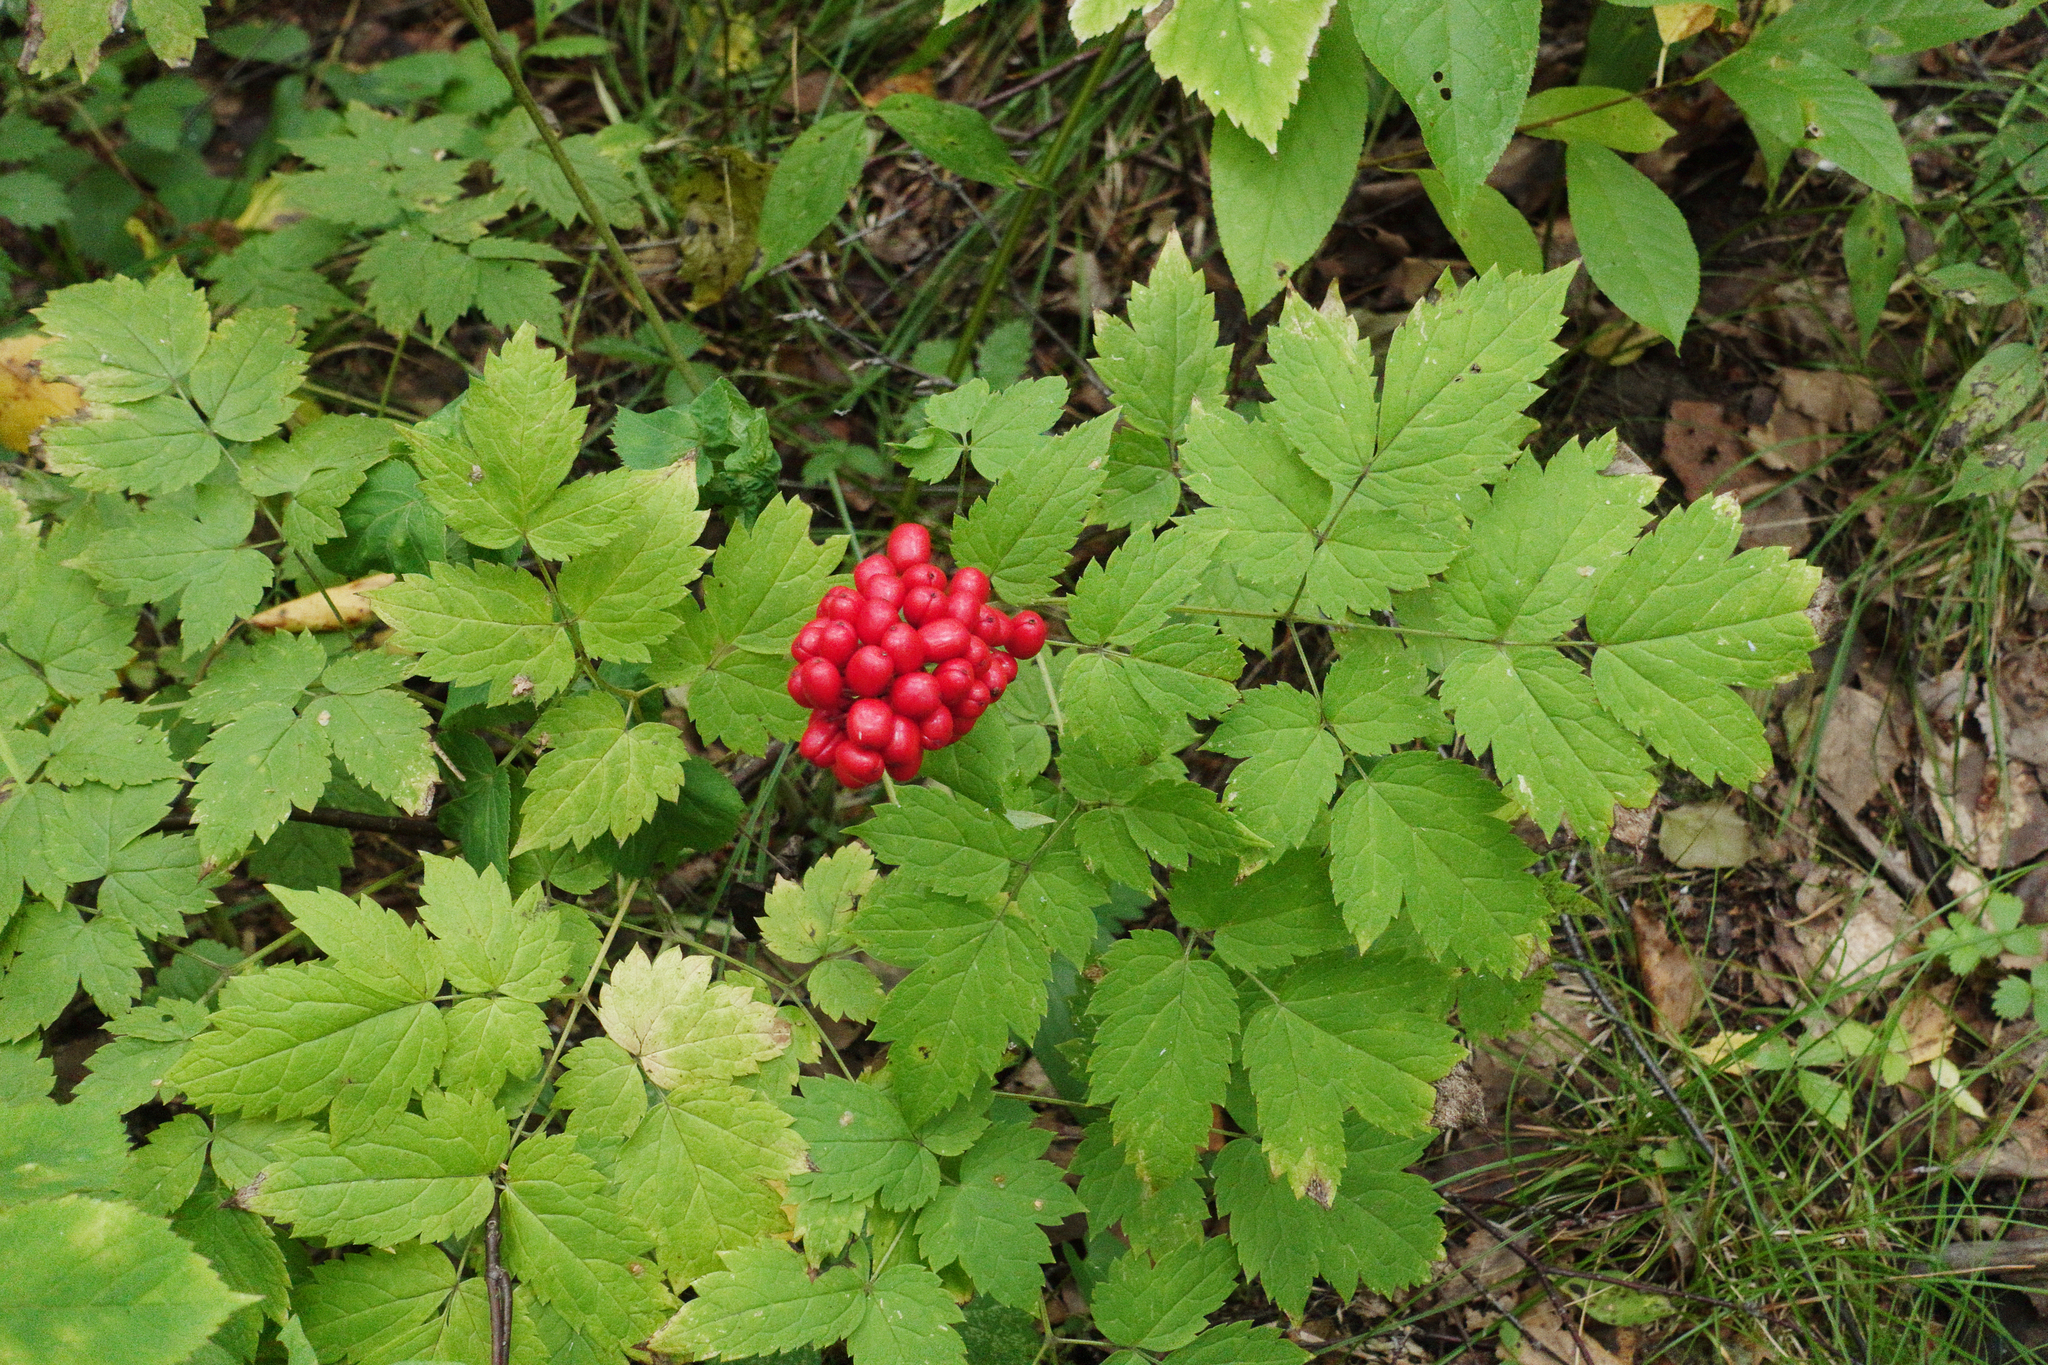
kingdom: Plantae
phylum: Tracheophyta
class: Magnoliopsida
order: Ranunculales
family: Ranunculaceae
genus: Actaea
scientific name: Actaea erythrocarpa
